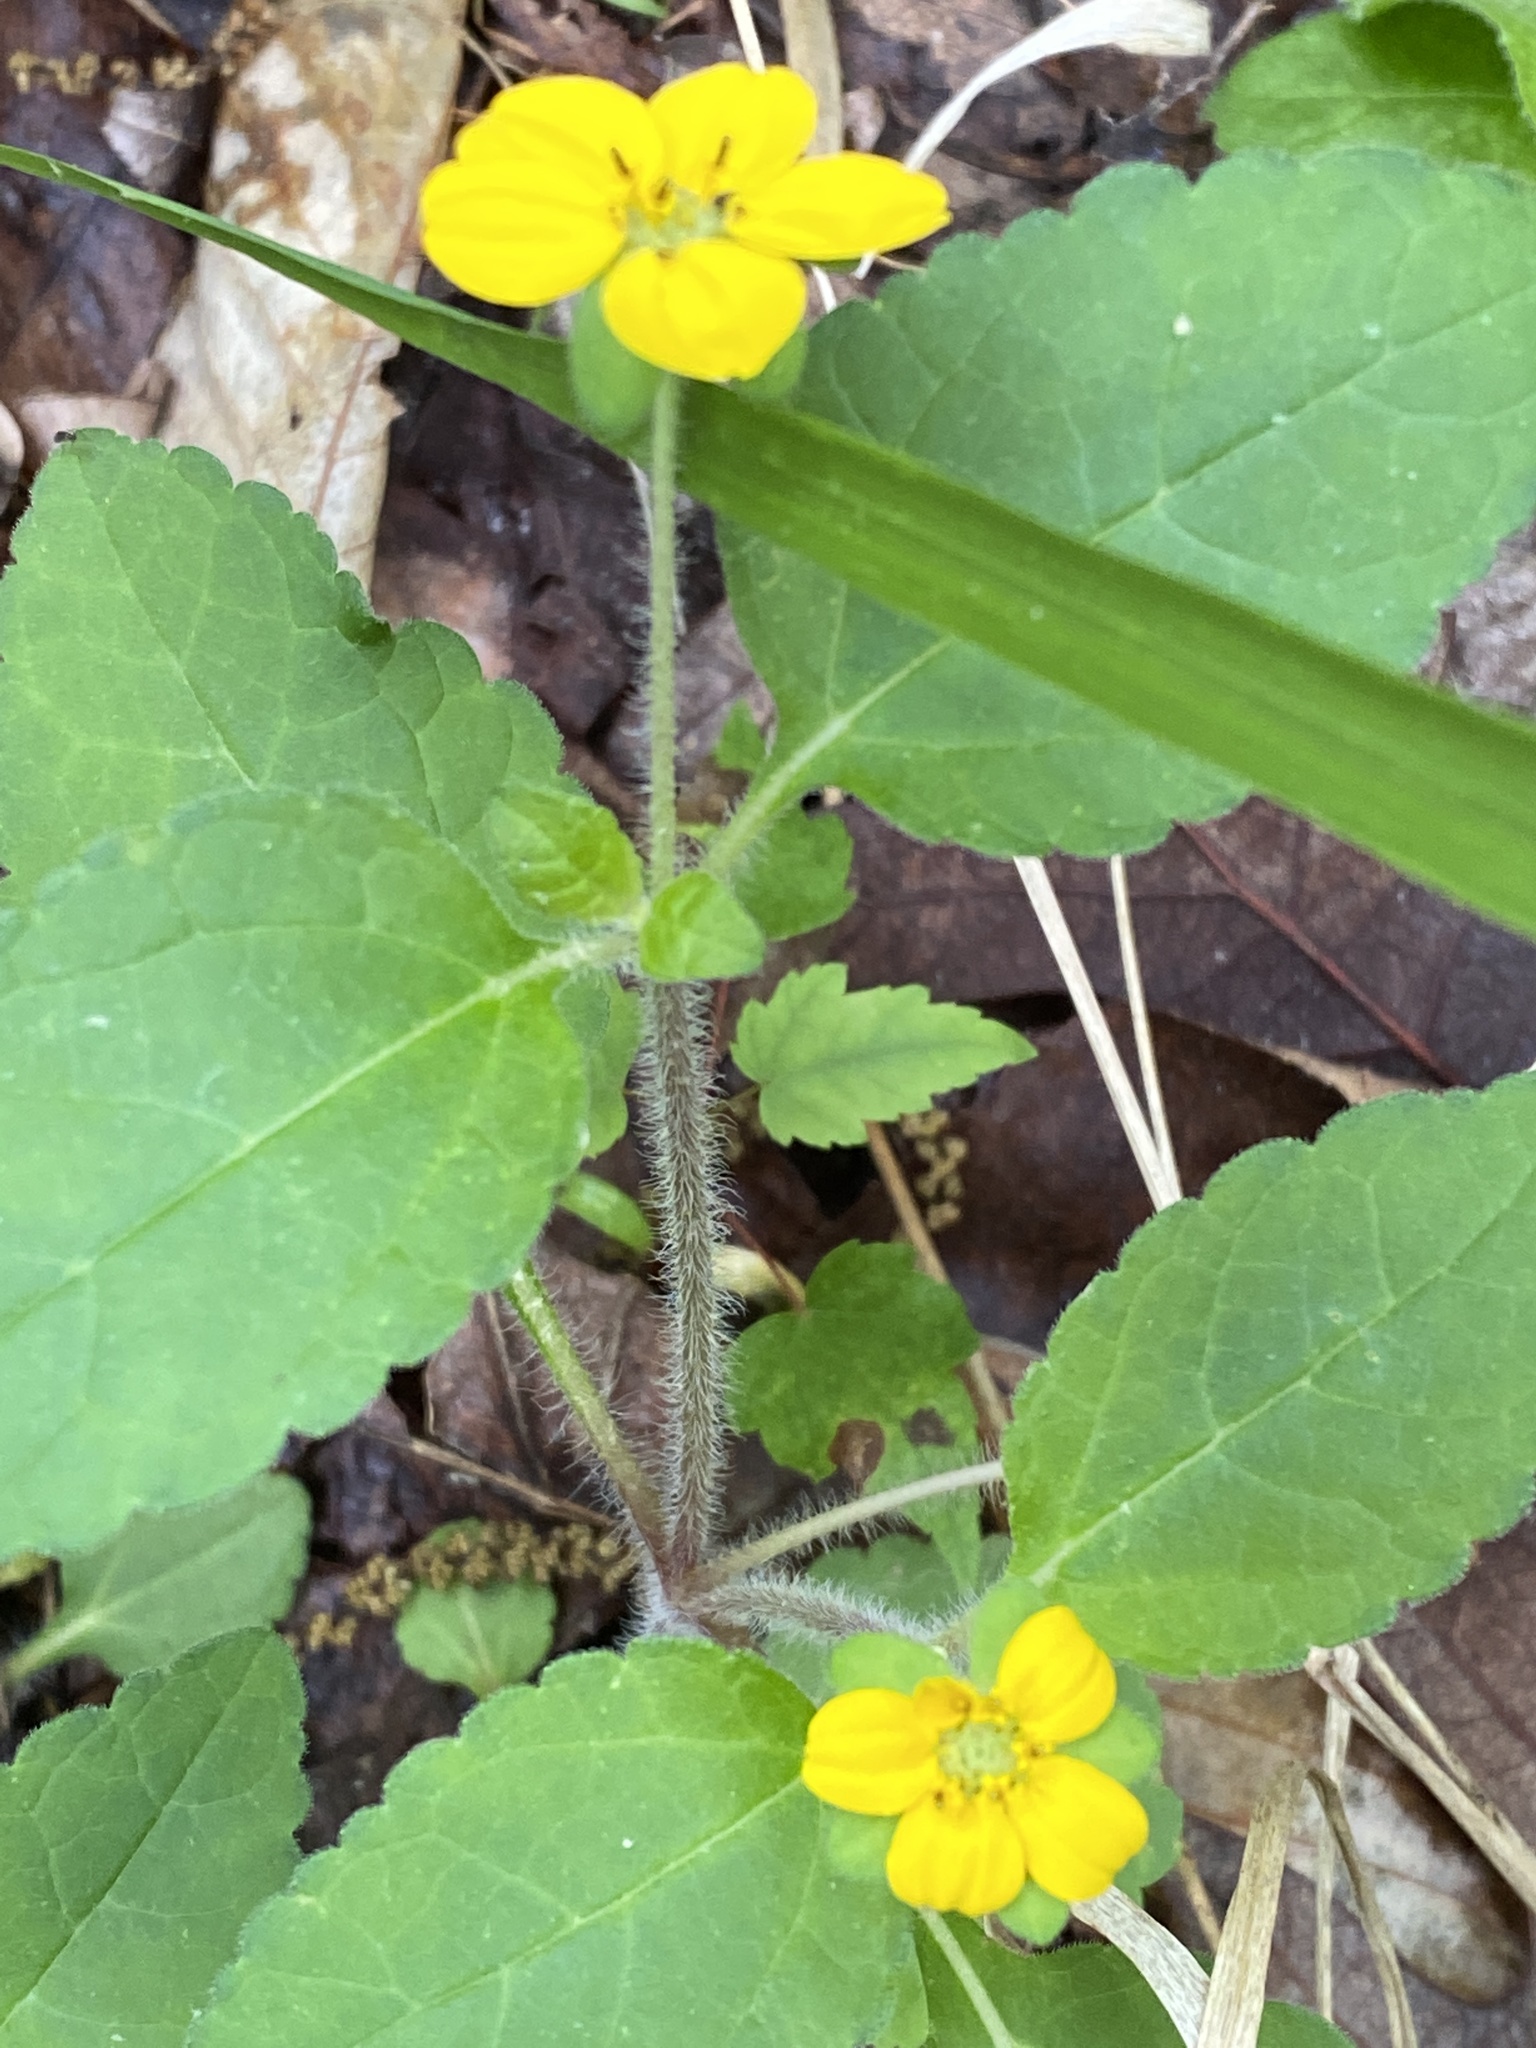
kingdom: Plantae
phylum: Tracheophyta
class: Magnoliopsida
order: Asterales
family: Asteraceae
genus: Chrysogonum
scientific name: Chrysogonum virginianum
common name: Golden-knee
